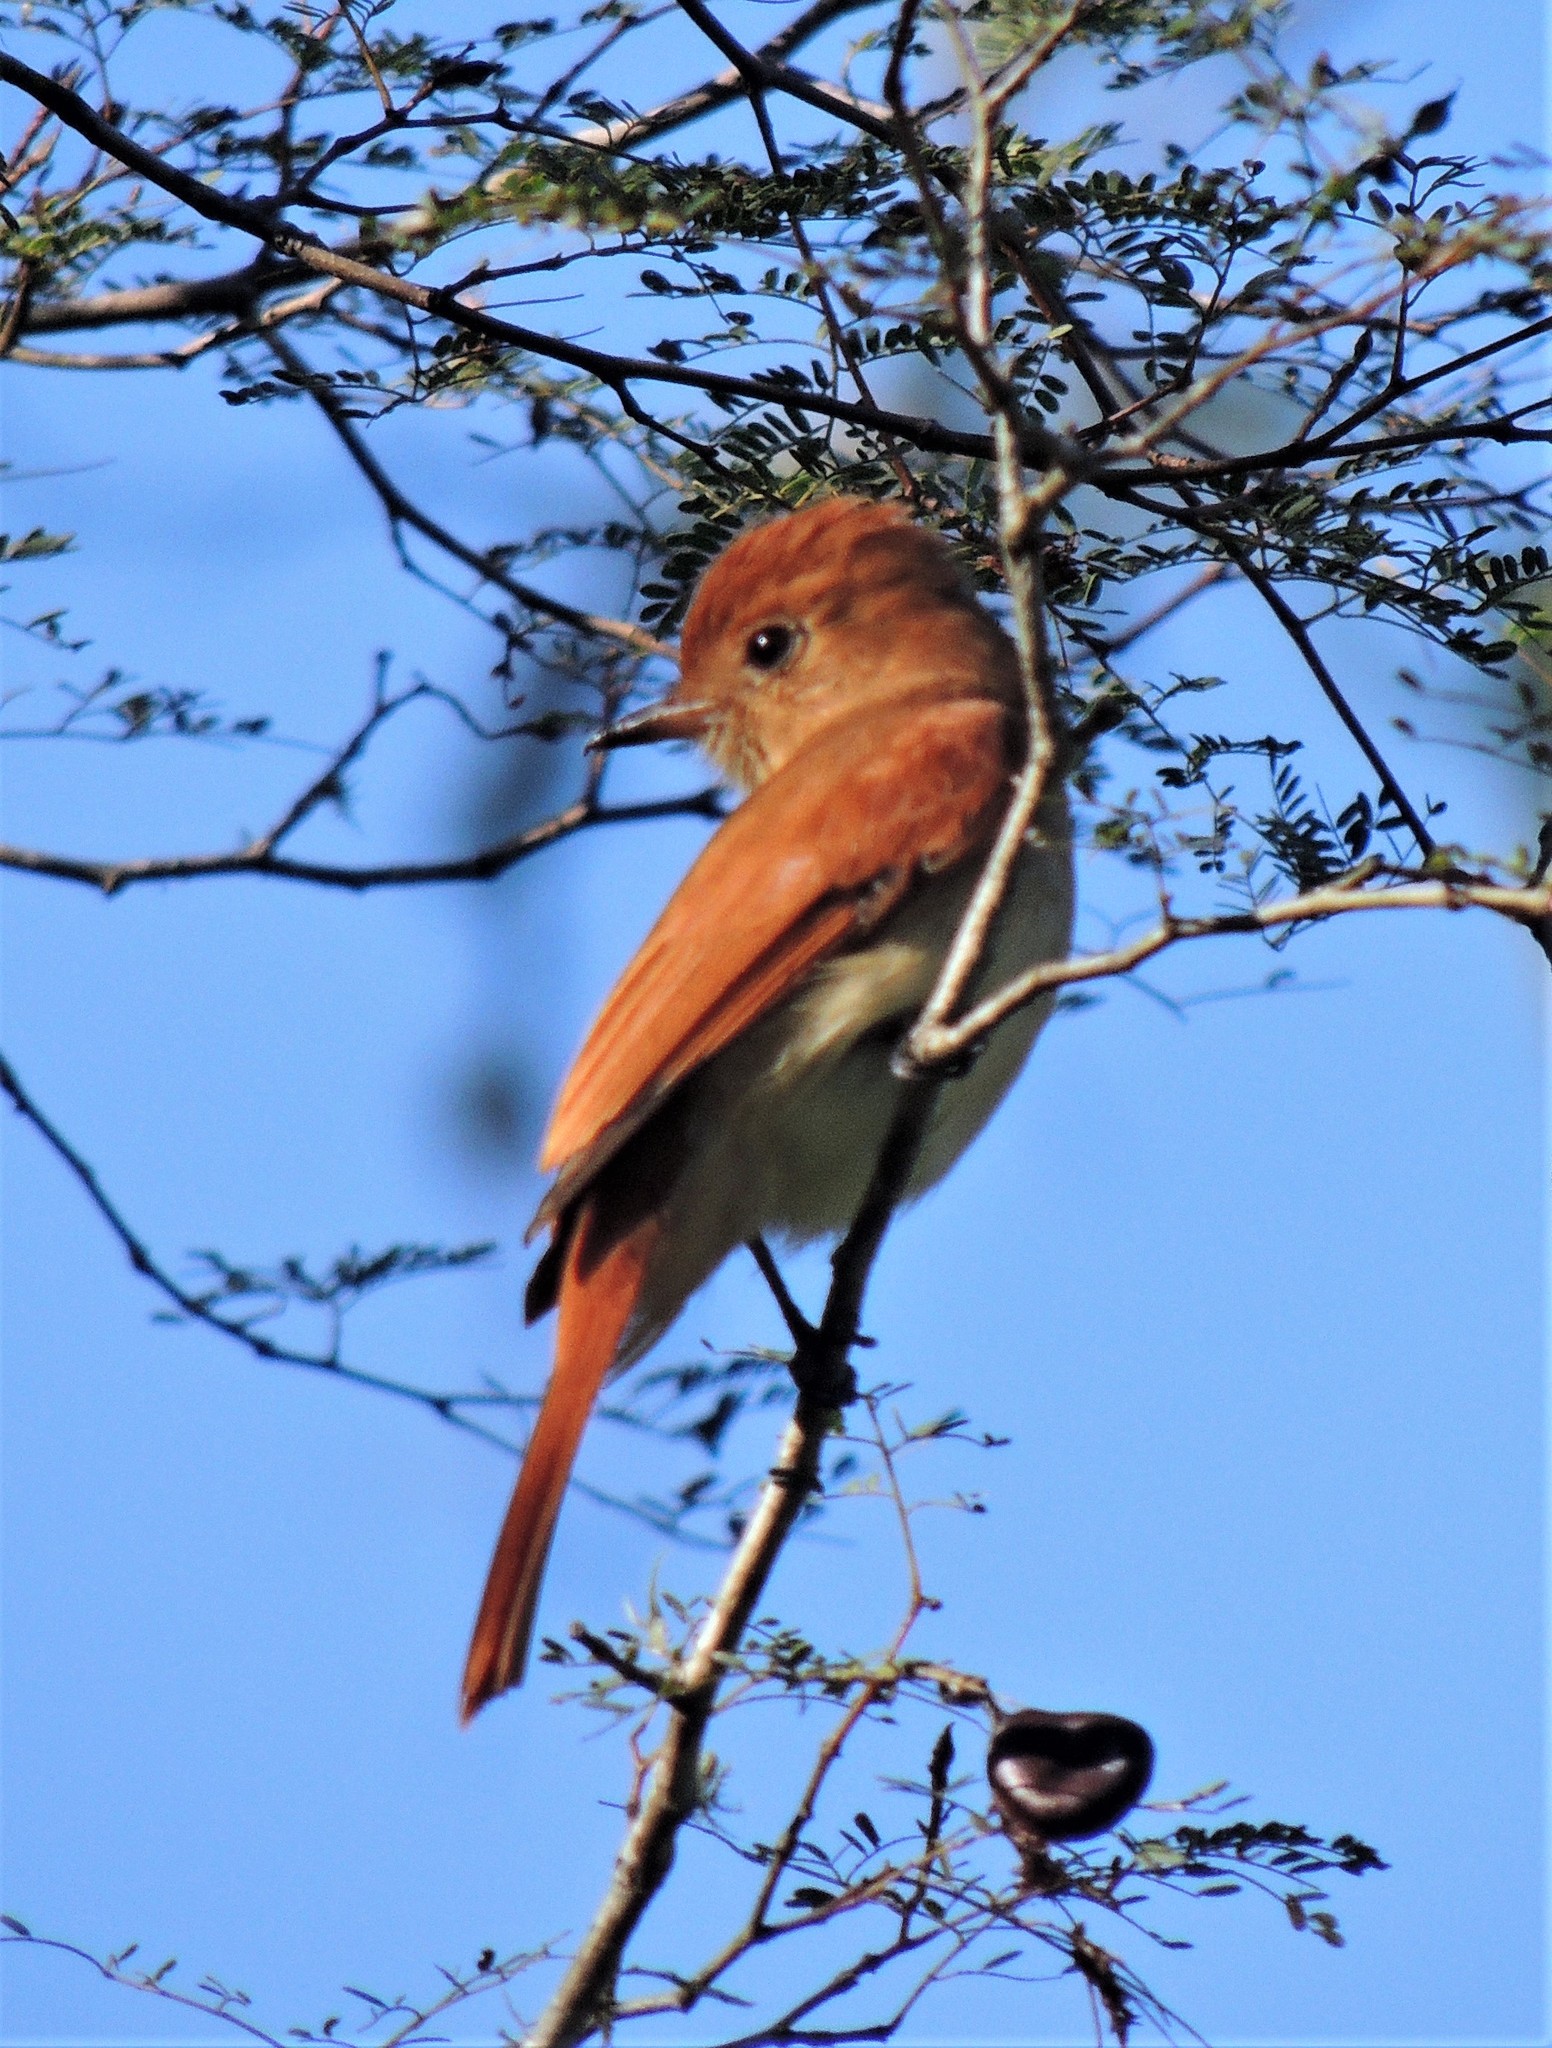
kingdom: Animalia
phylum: Chordata
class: Aves
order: Passeriformes
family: Tyrannidae
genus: Casiornis
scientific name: Casiornis rufus
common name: Rufous casiornis
